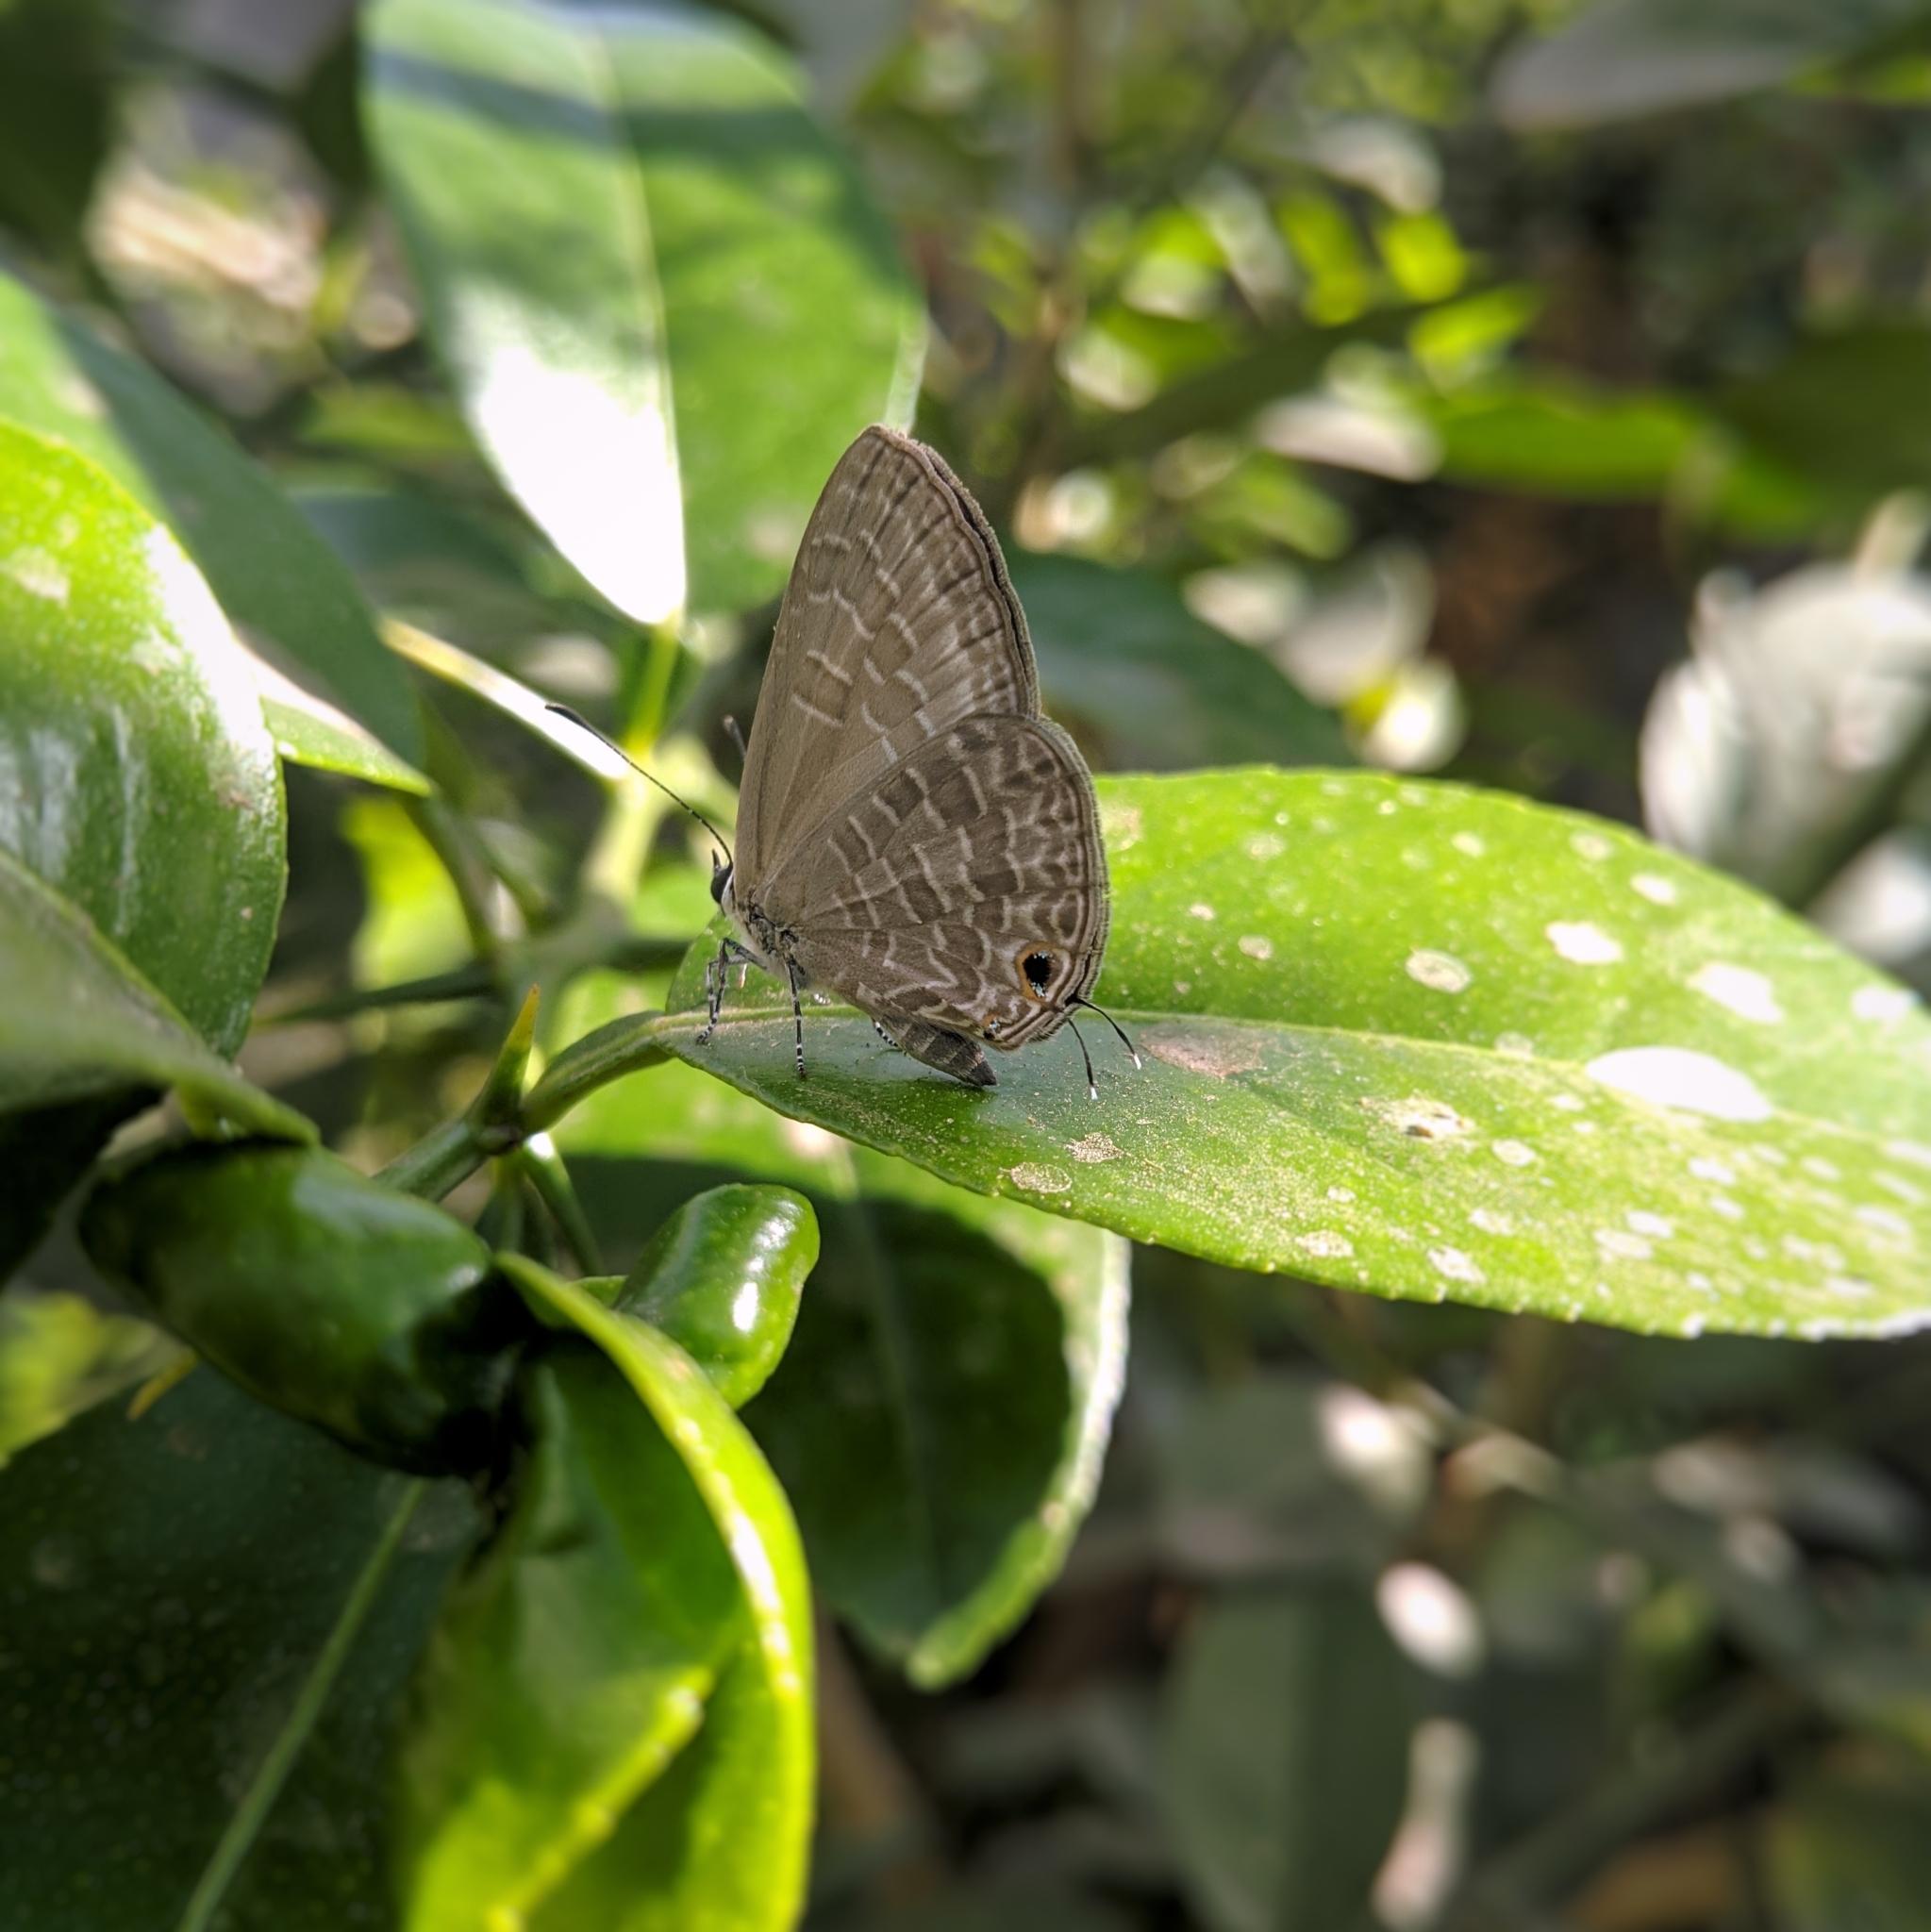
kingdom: Animalia
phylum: Arthropoda
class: Insecta
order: Lepidoptera
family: Lycaenidae
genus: Jamides
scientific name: Jamides bochus
